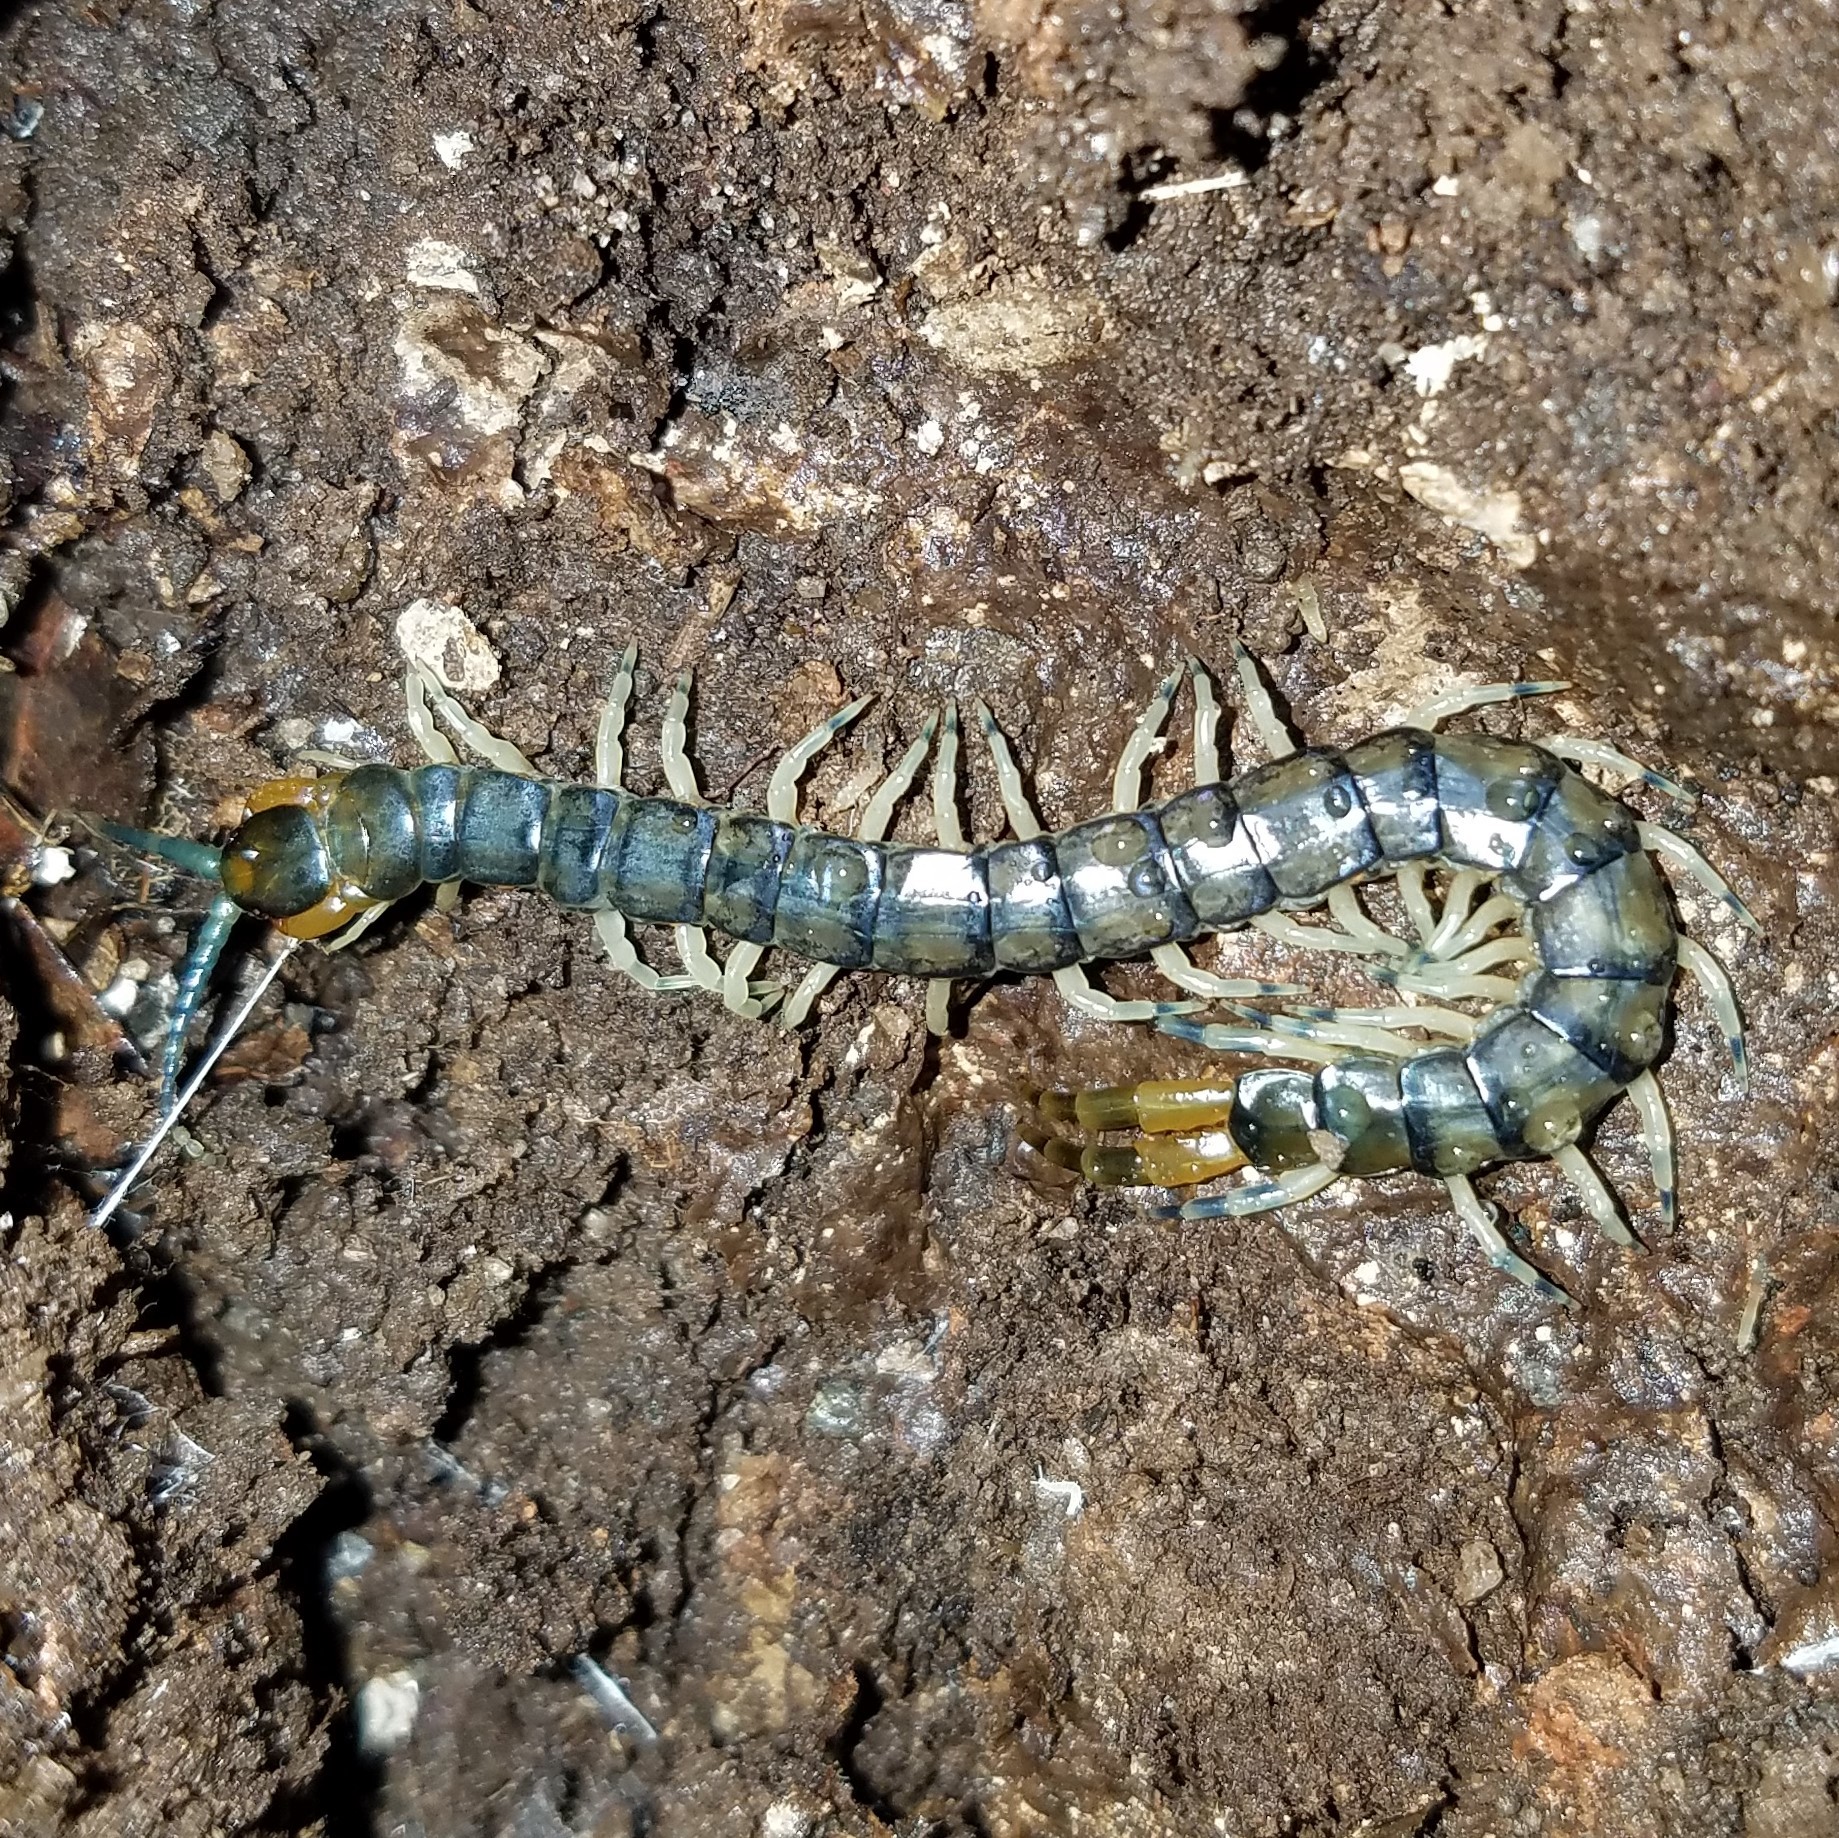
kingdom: Animalia
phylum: Arthropoda
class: Chilopoda
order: Scolopendromorpha
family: Scolopendridae
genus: Hemiscolopendra
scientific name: Hemiscolopendra marginata
